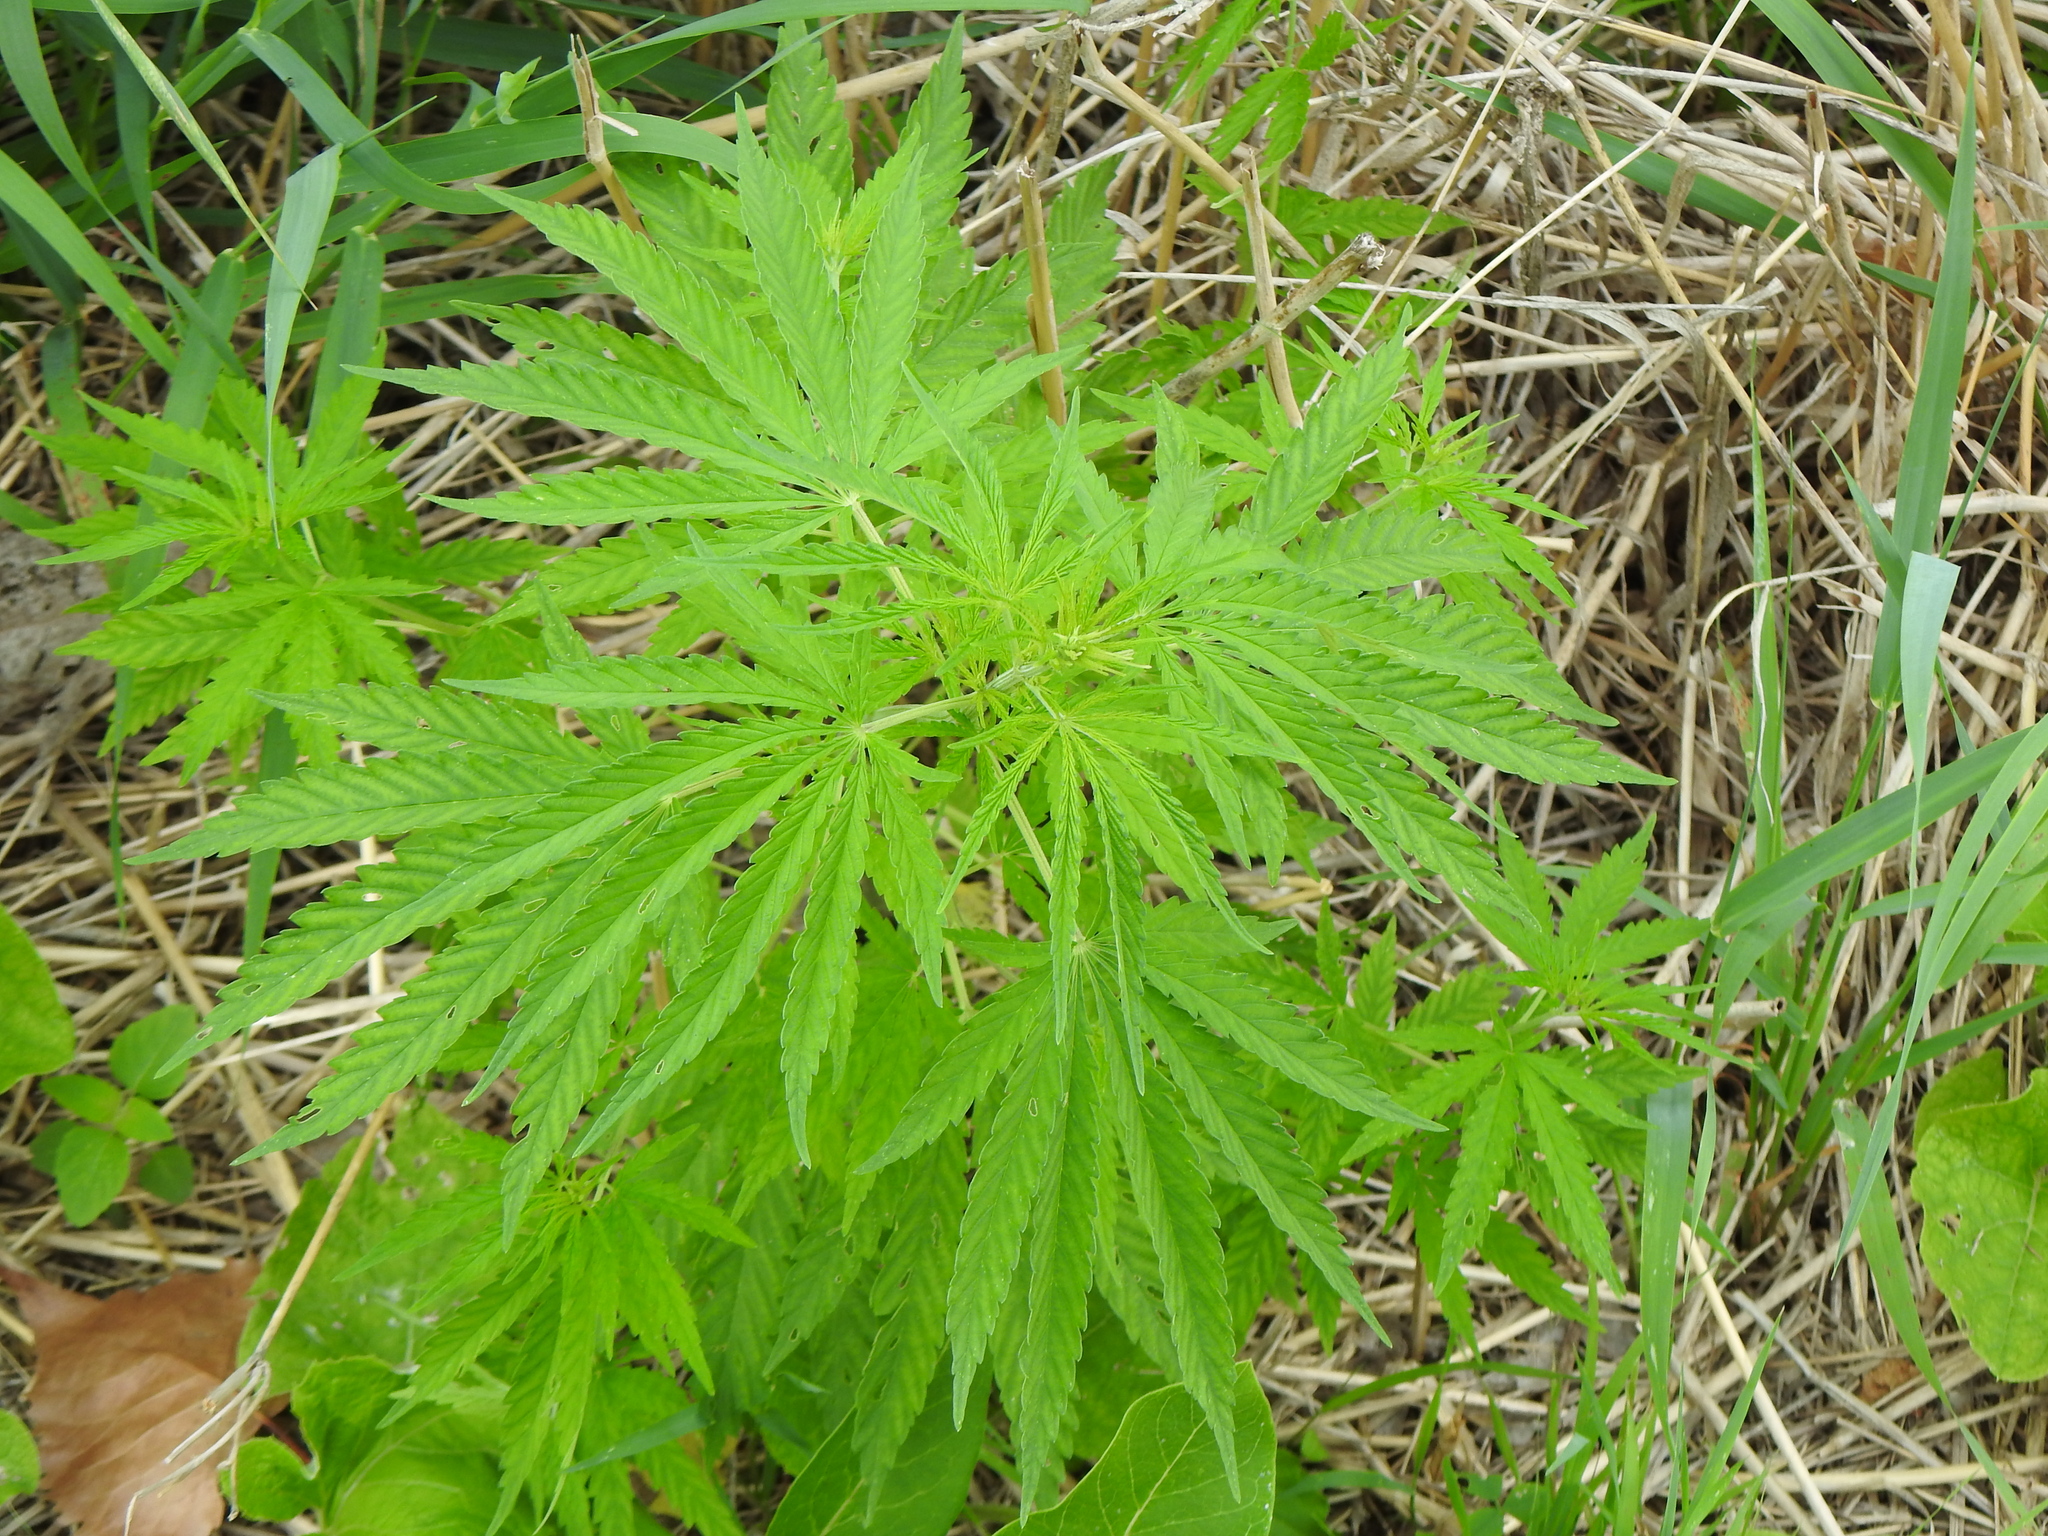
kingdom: Plantae
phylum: Tracheophyta
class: Magnoliopsida
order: Rosales
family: Cannabaceae
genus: Cannabis
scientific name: Cannabis sativa
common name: Hemp
